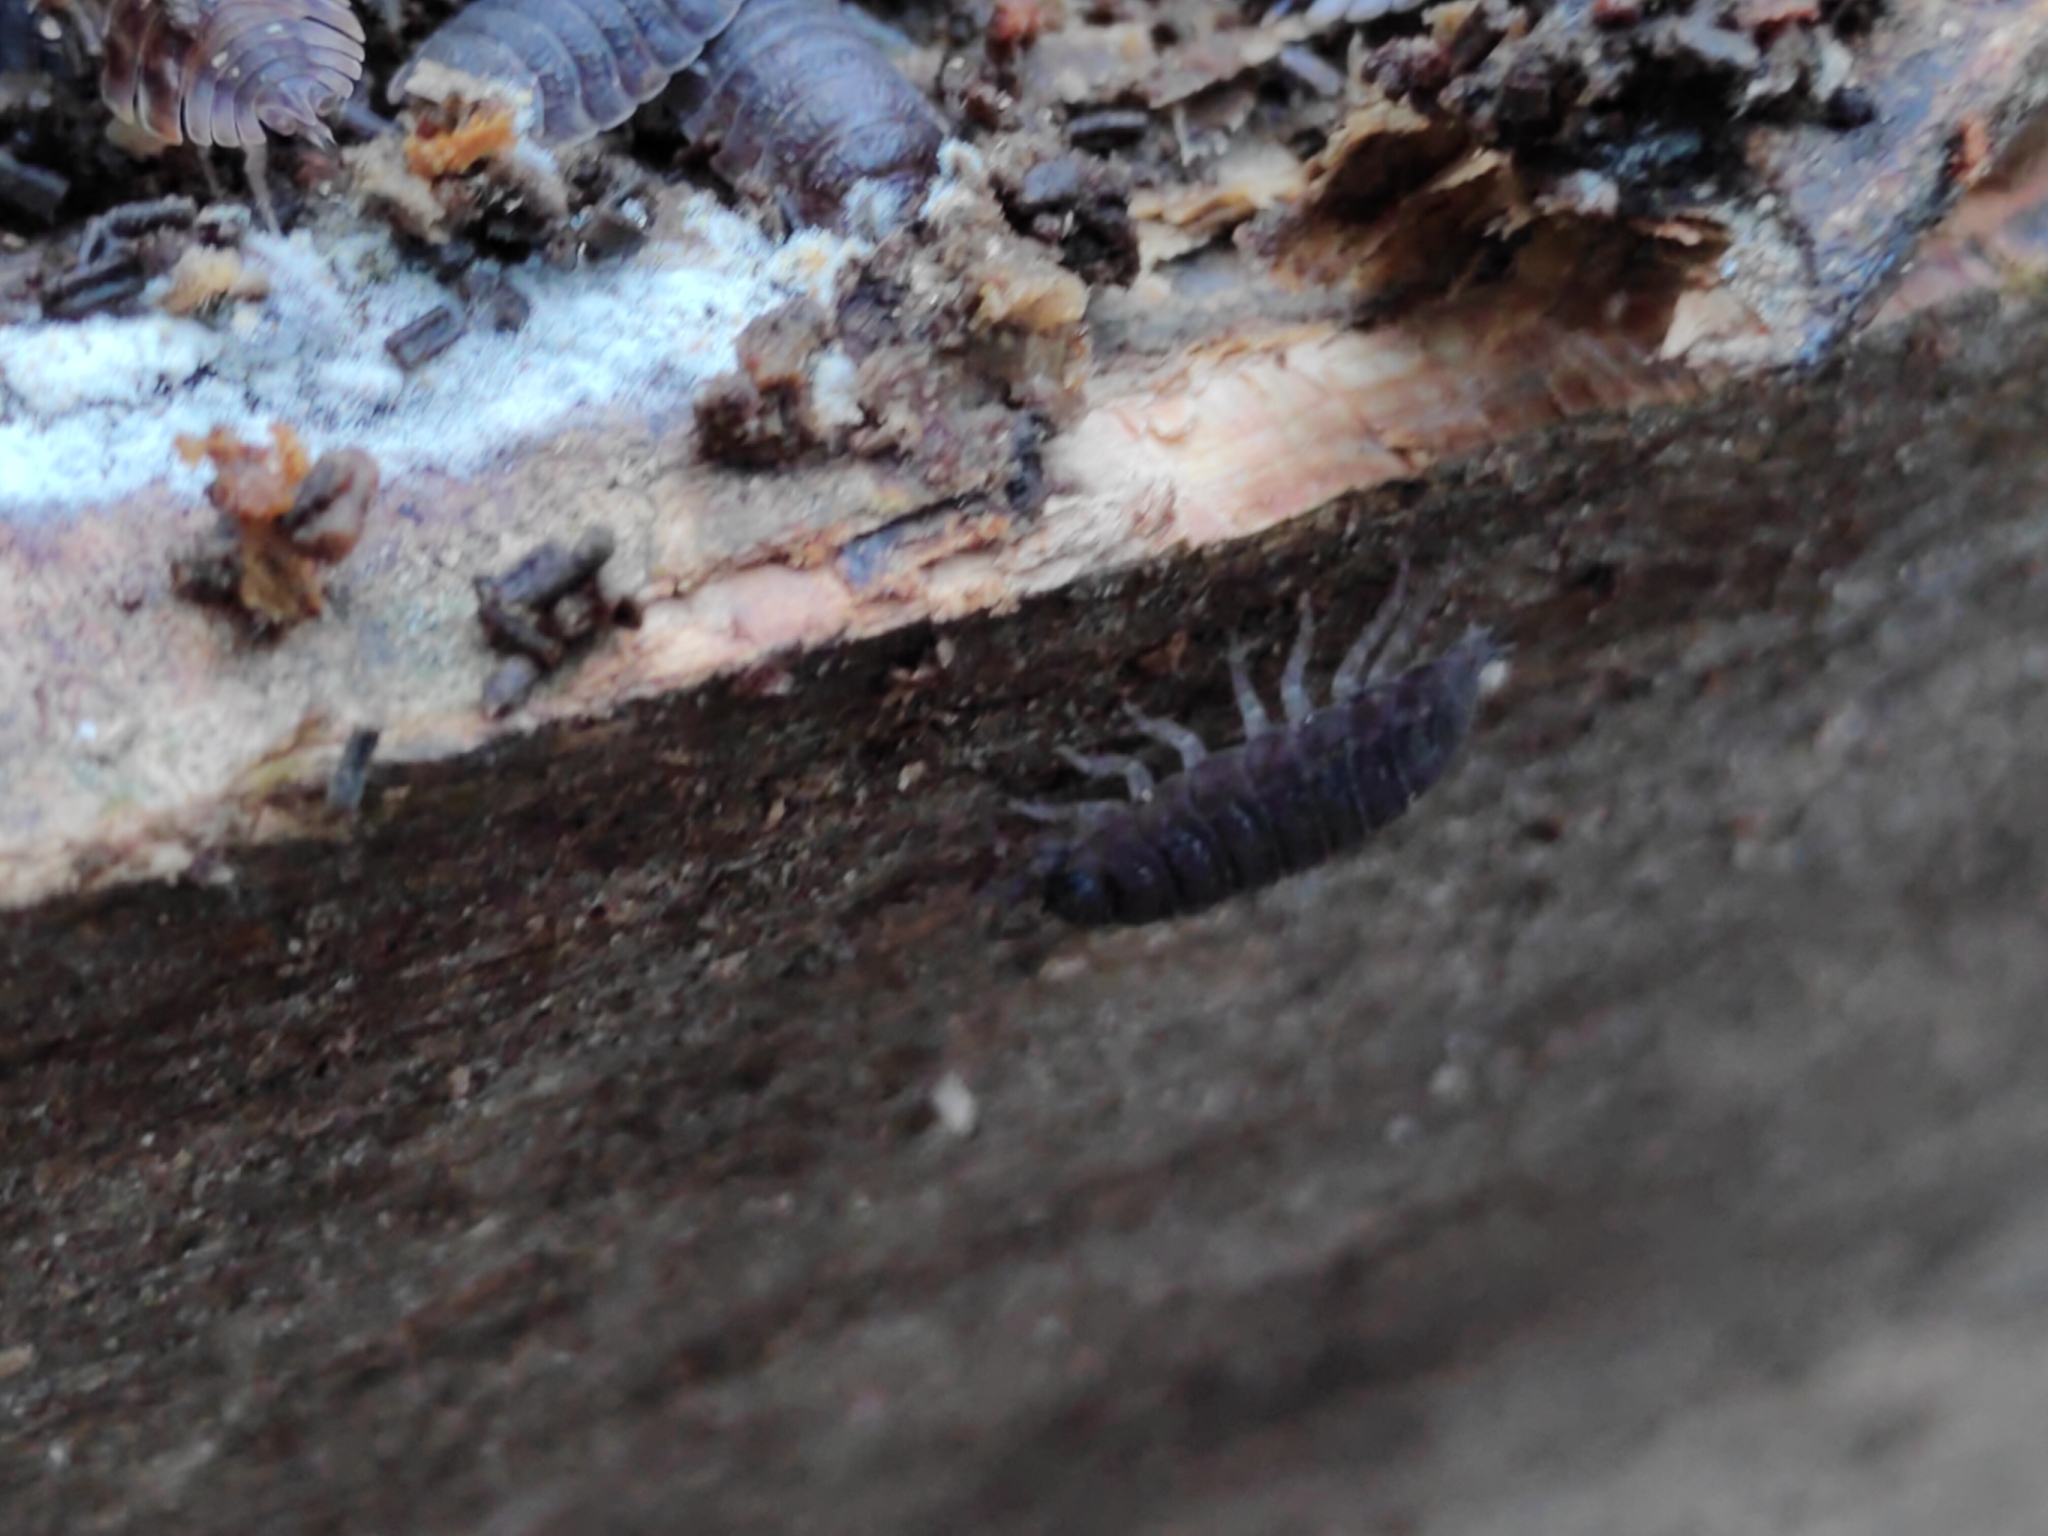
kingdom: Animalia
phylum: Arthropoda
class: Malacostraca
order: Isopoda
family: Porcellionidae
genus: Porcellio
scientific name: Porcellio scaber
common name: Common rough woodlouse
